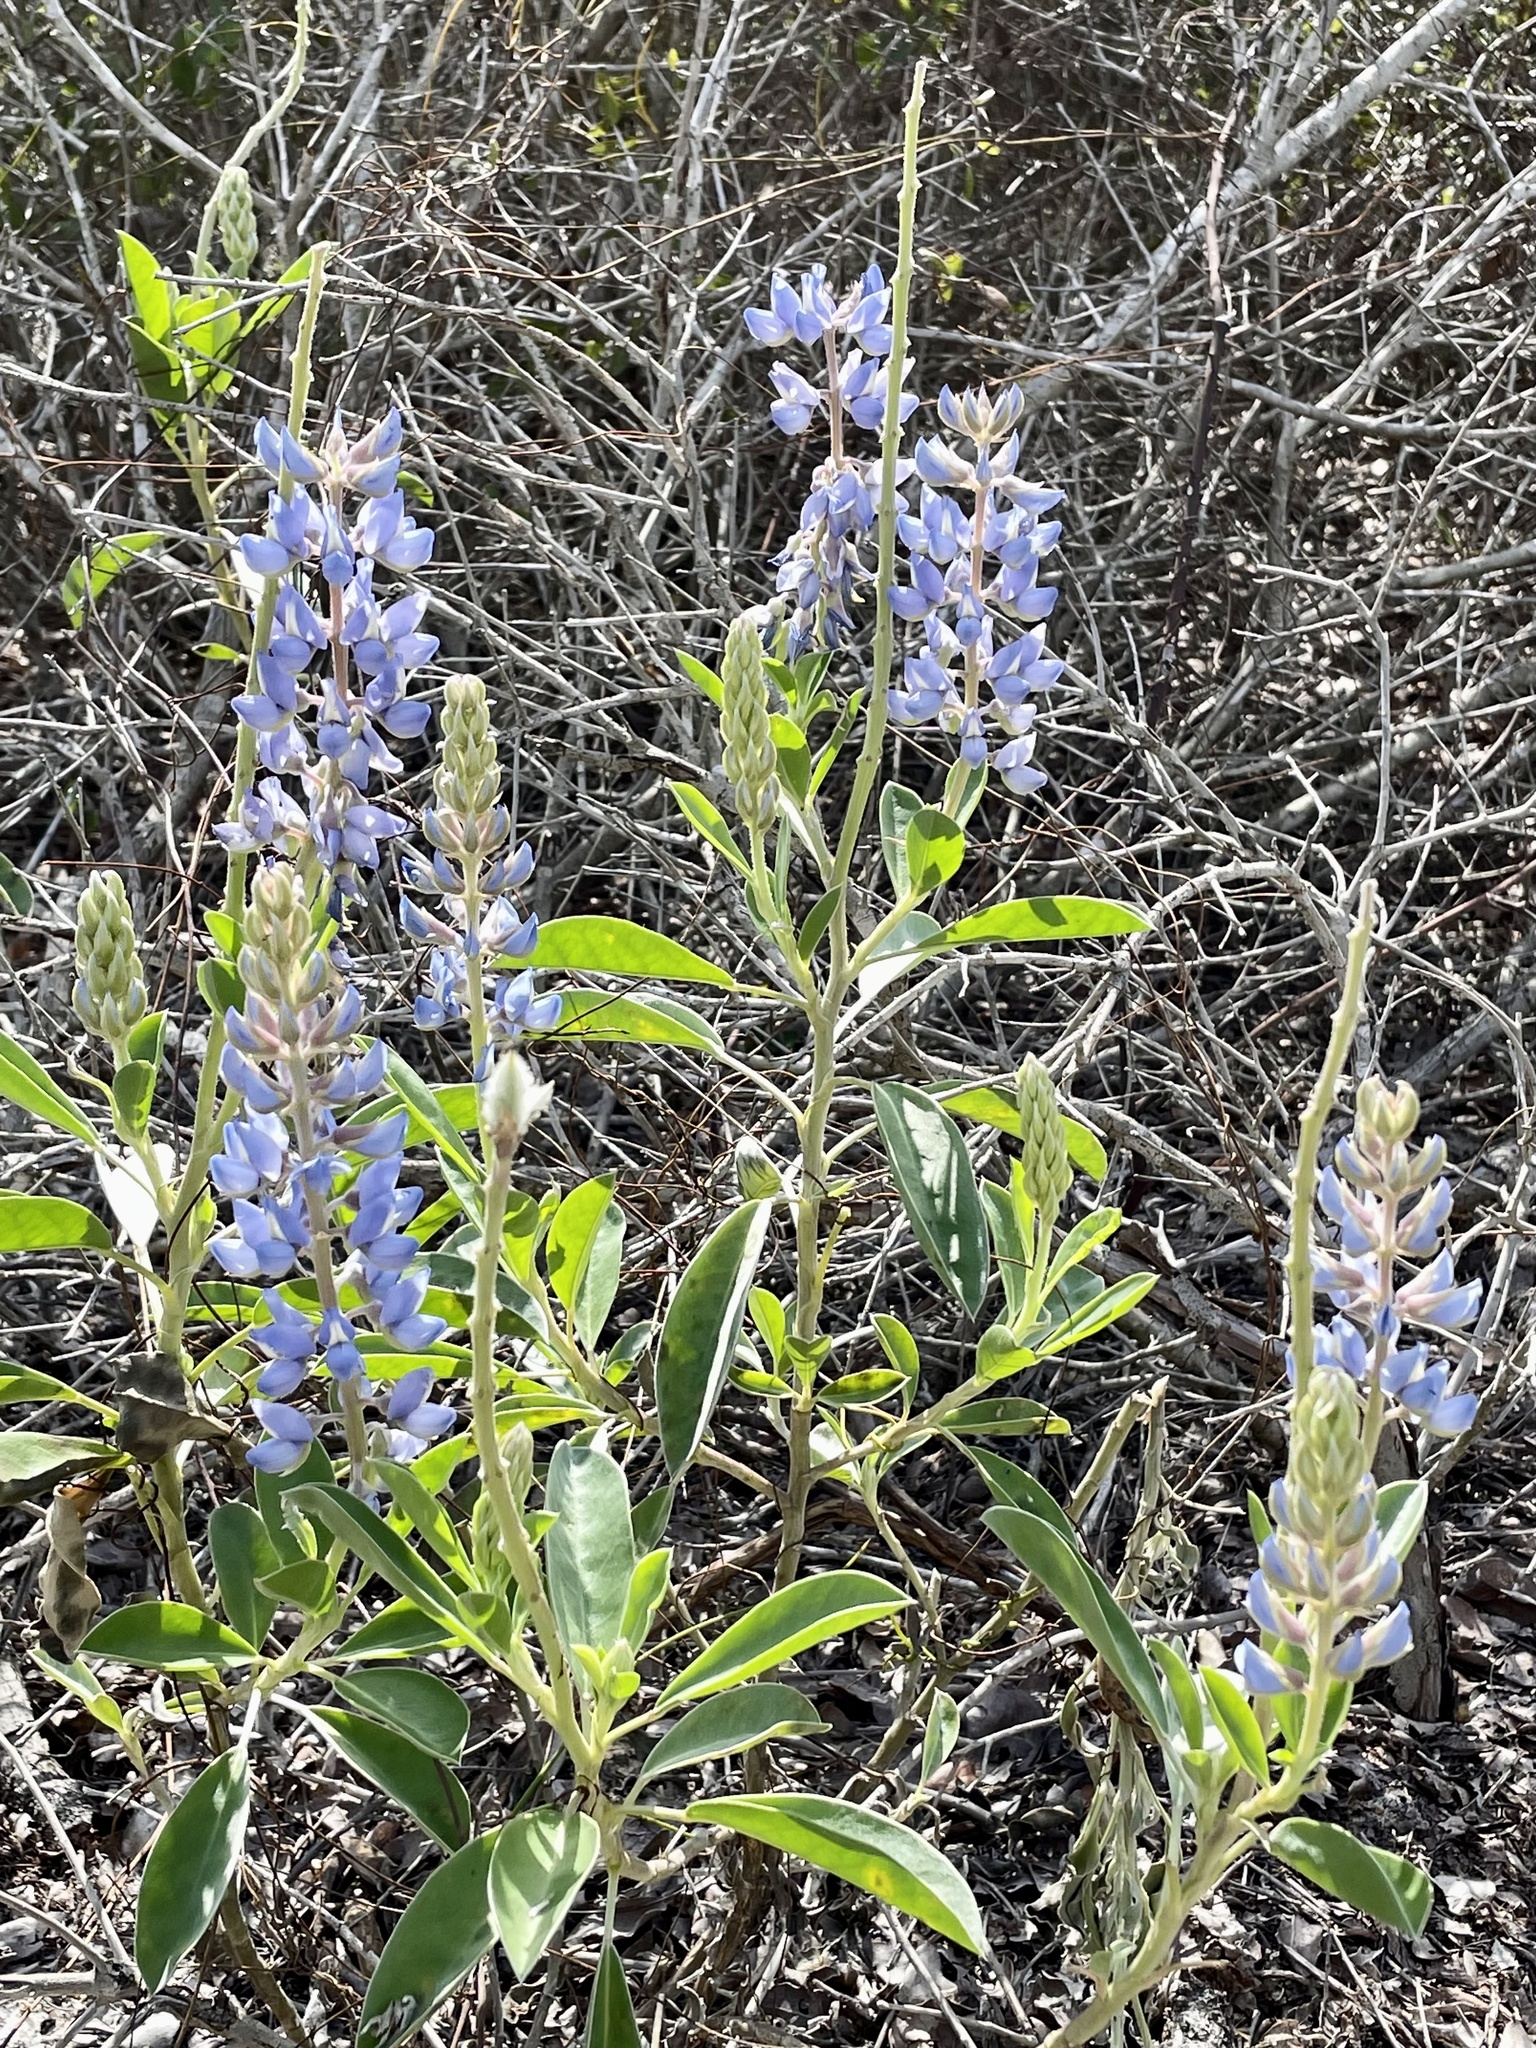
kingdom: Plantae
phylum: Tracheophyta
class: Magnoliopsida
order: Fabales
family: Fabaceae
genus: Lupinus
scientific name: Lupinus
